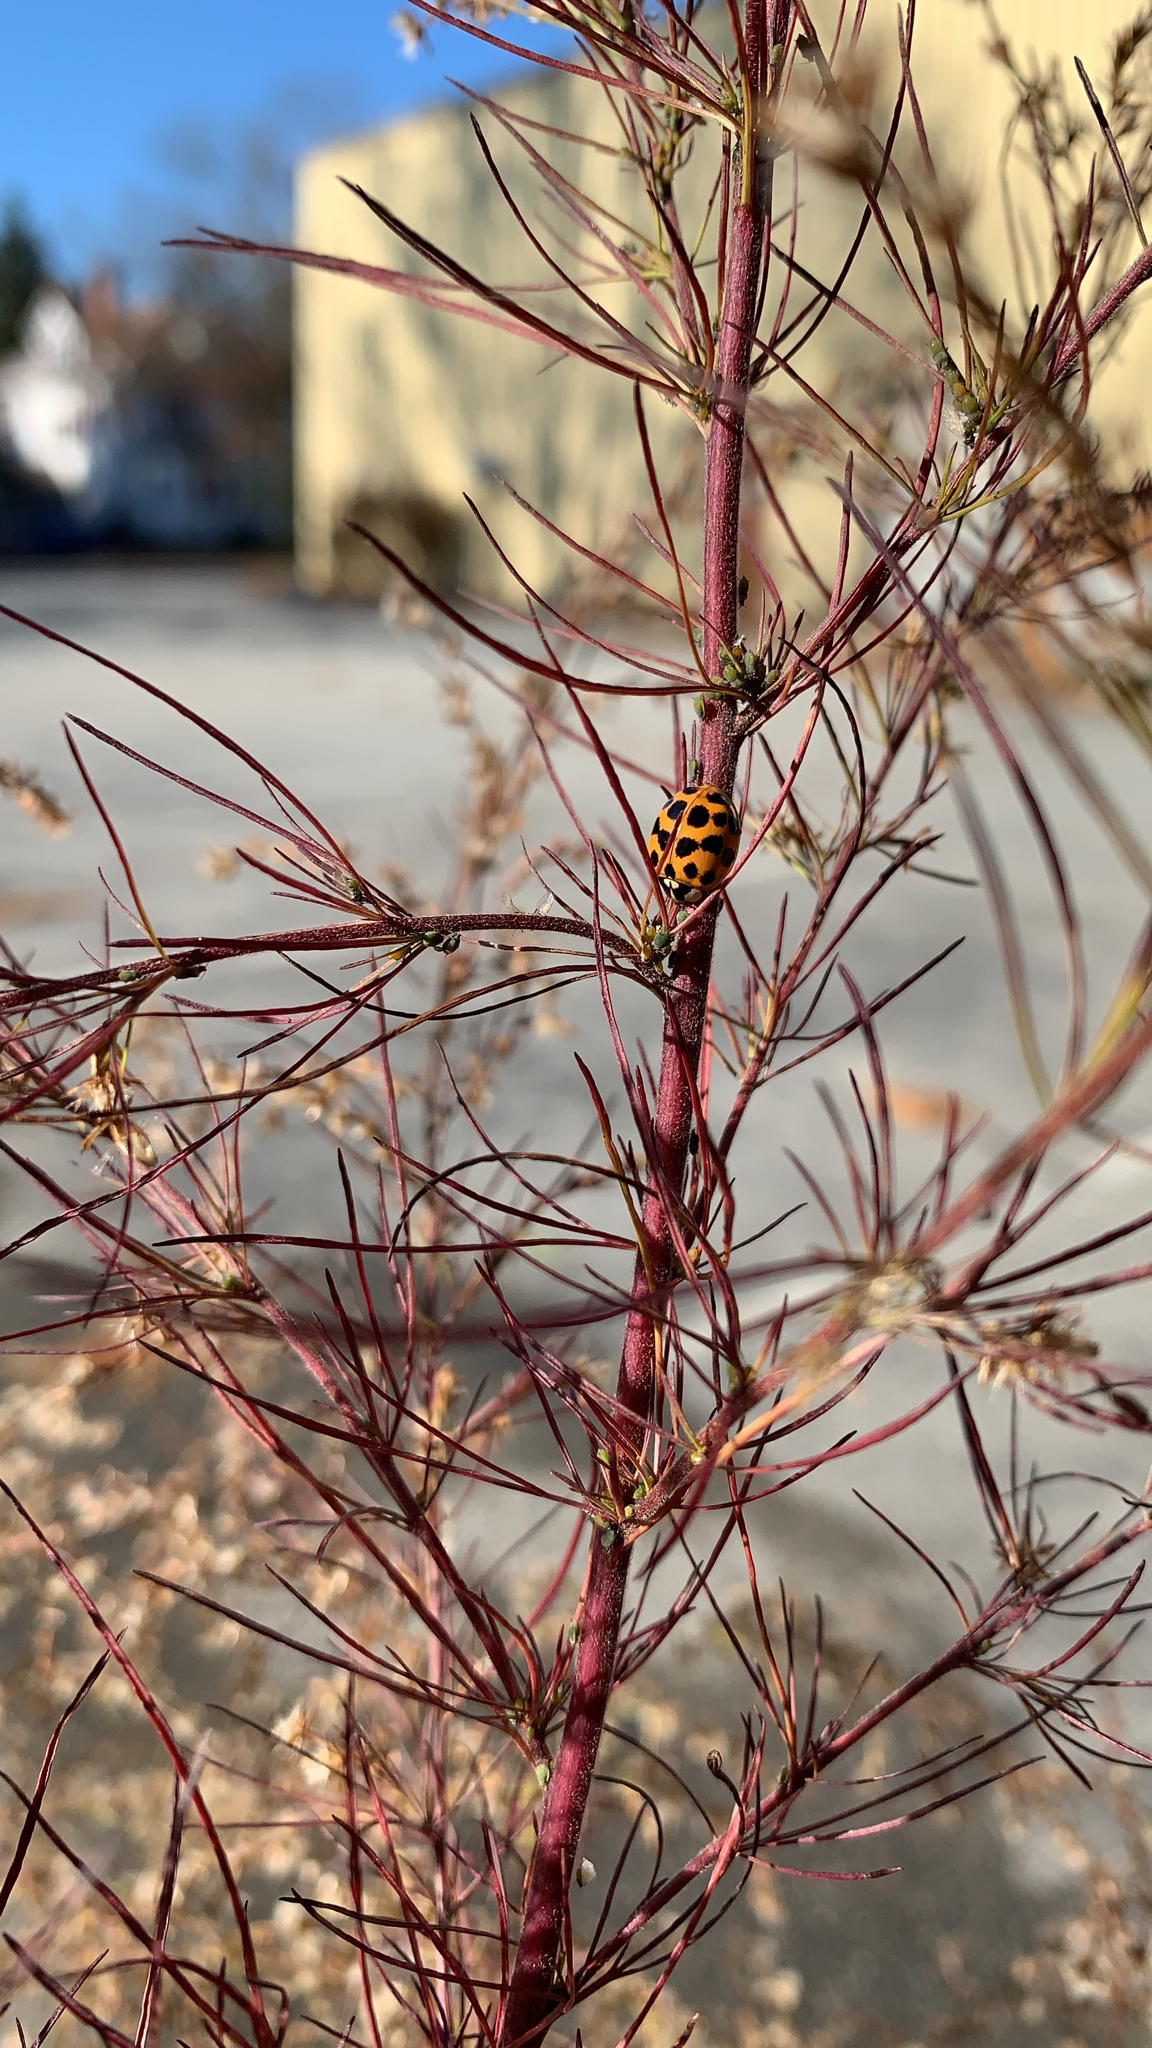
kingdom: Animalia
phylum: Arthropoda
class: Insecta
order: Coleoptera
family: Coccinellidae
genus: Harmonia
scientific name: Harmonia axyridis
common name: Harlequin ladybird
